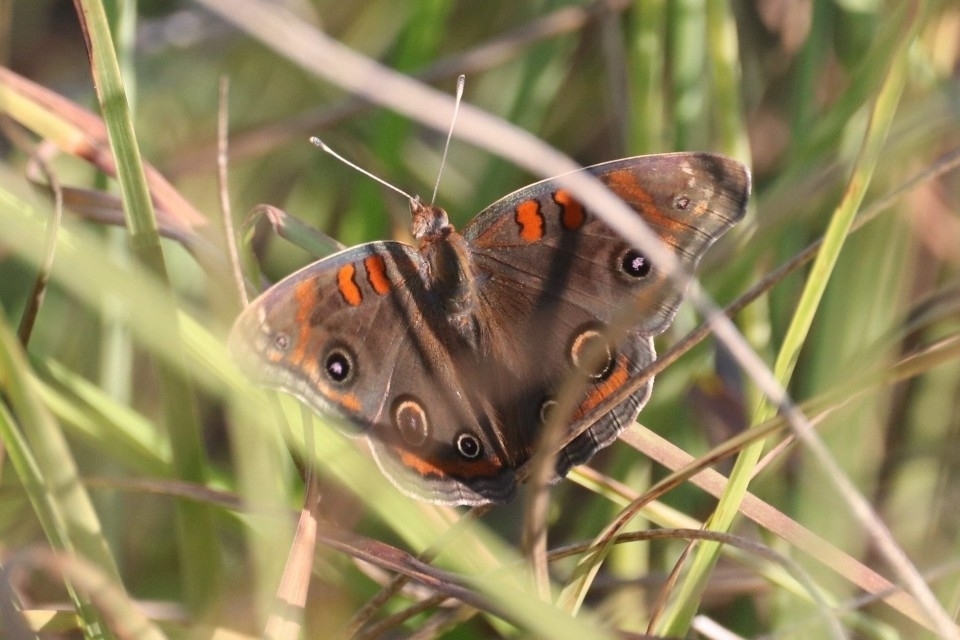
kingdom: Animalia
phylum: Arthropoda
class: Insecta
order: Lepidoptera
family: Nymphalidae
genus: Junonia
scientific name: Junonia stemosa
